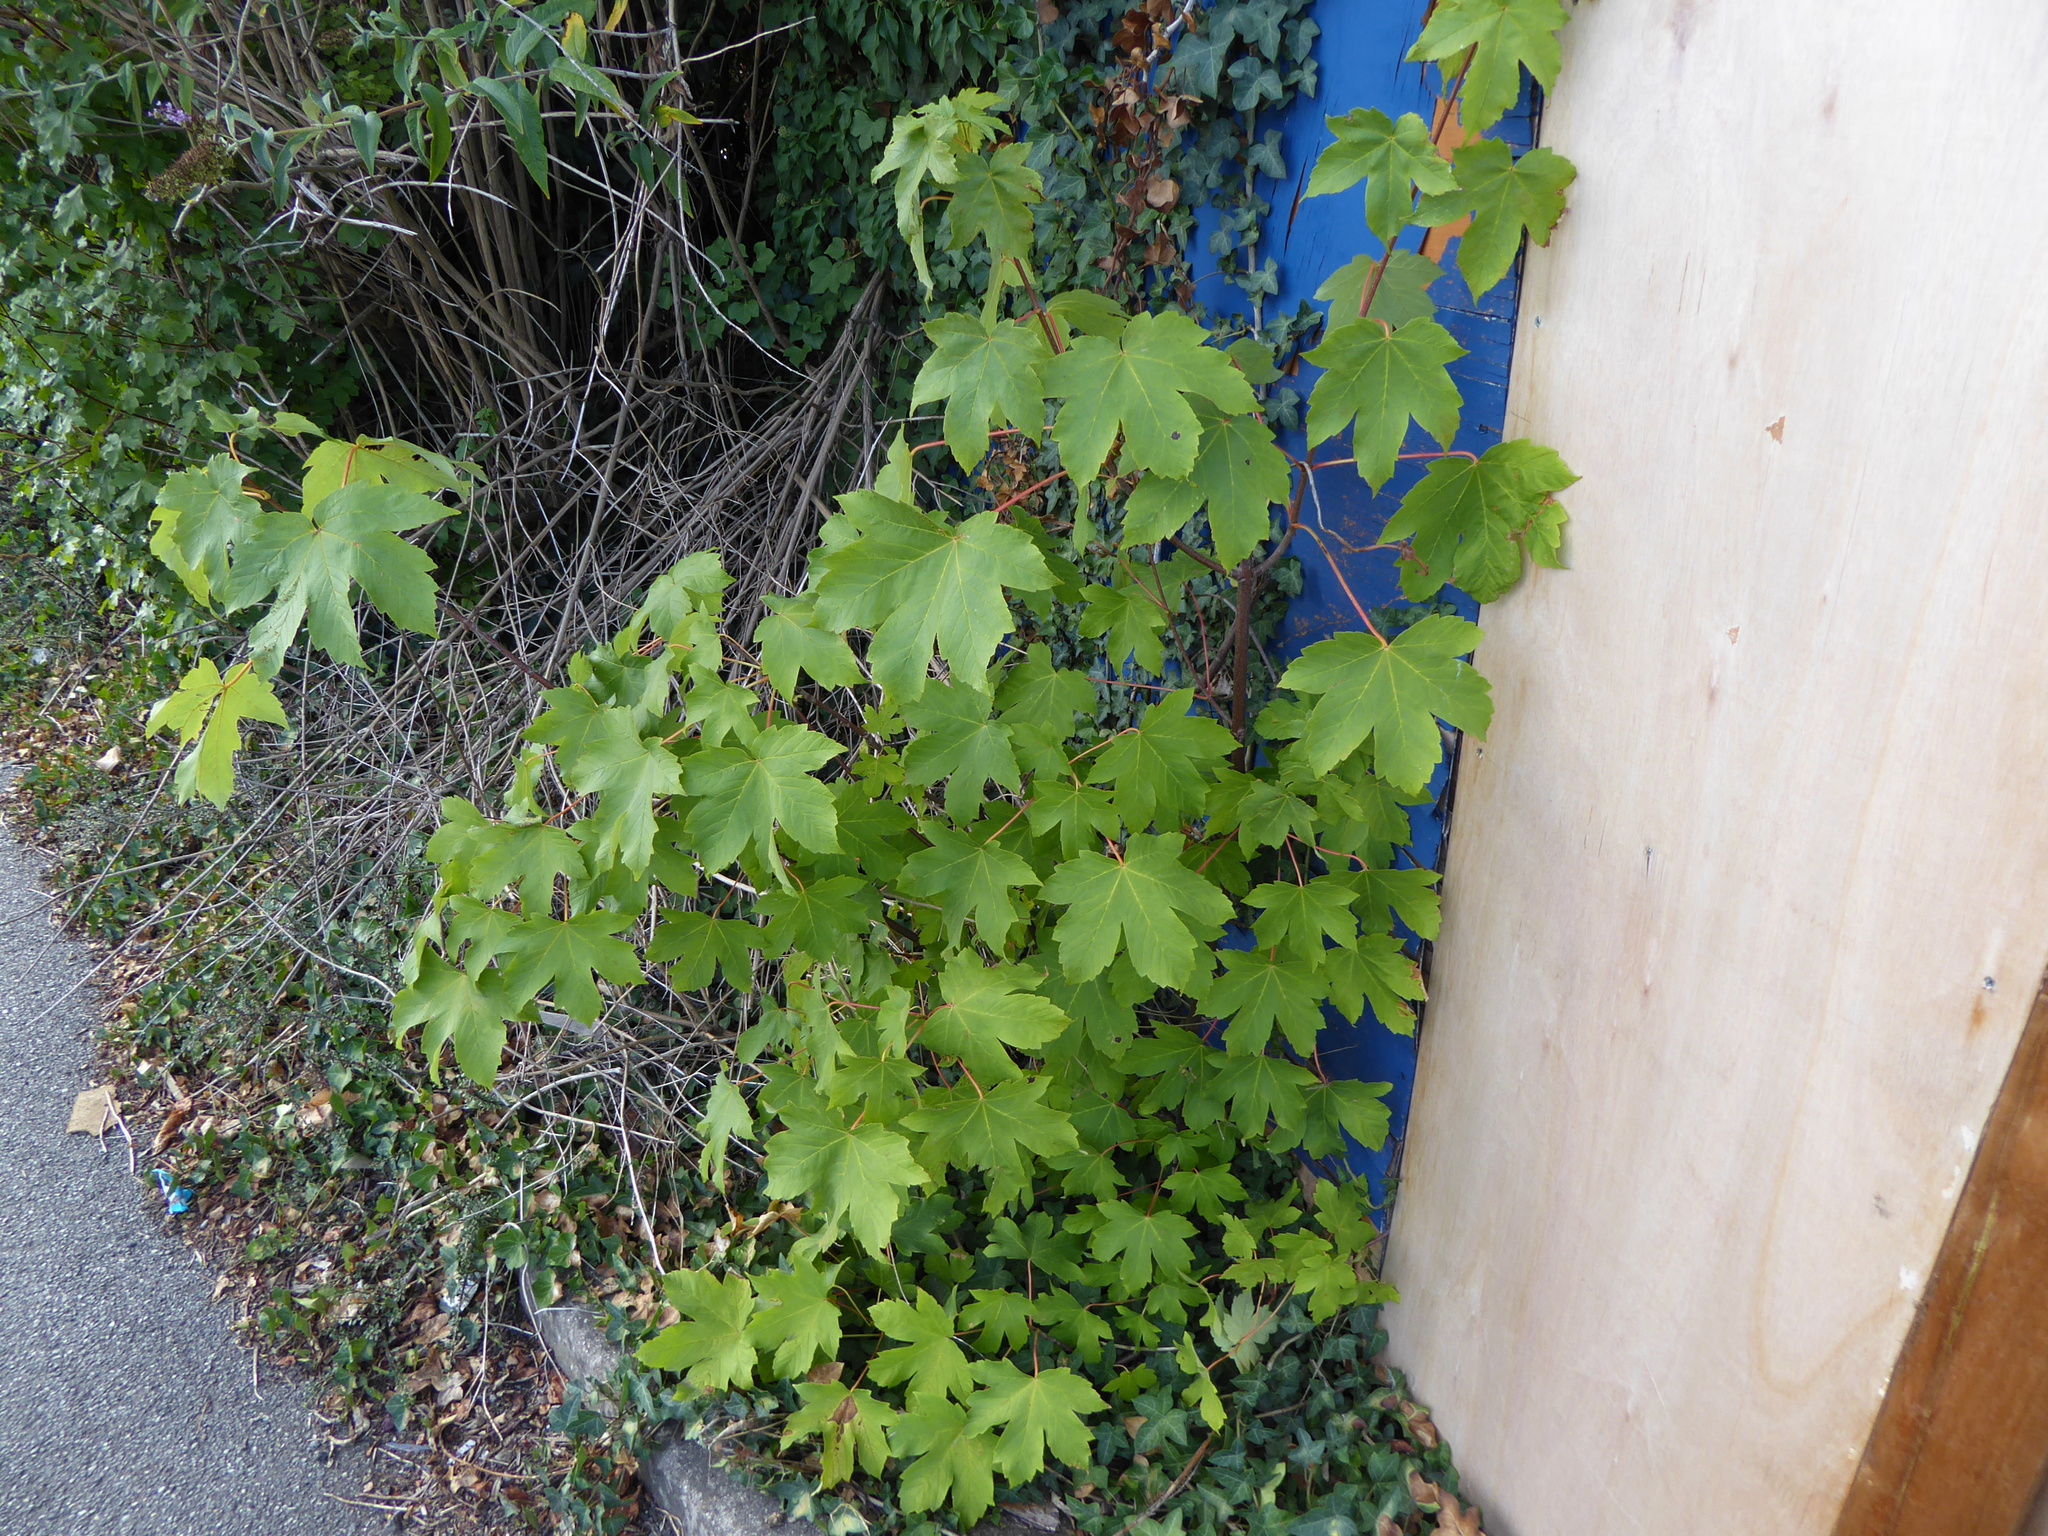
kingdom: Plantae
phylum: Tracheophyta
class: Magnoliopsida
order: Sapindales
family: Sapindaceae
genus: Acer
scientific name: Acer pseudoplatanus
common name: Sycamore
